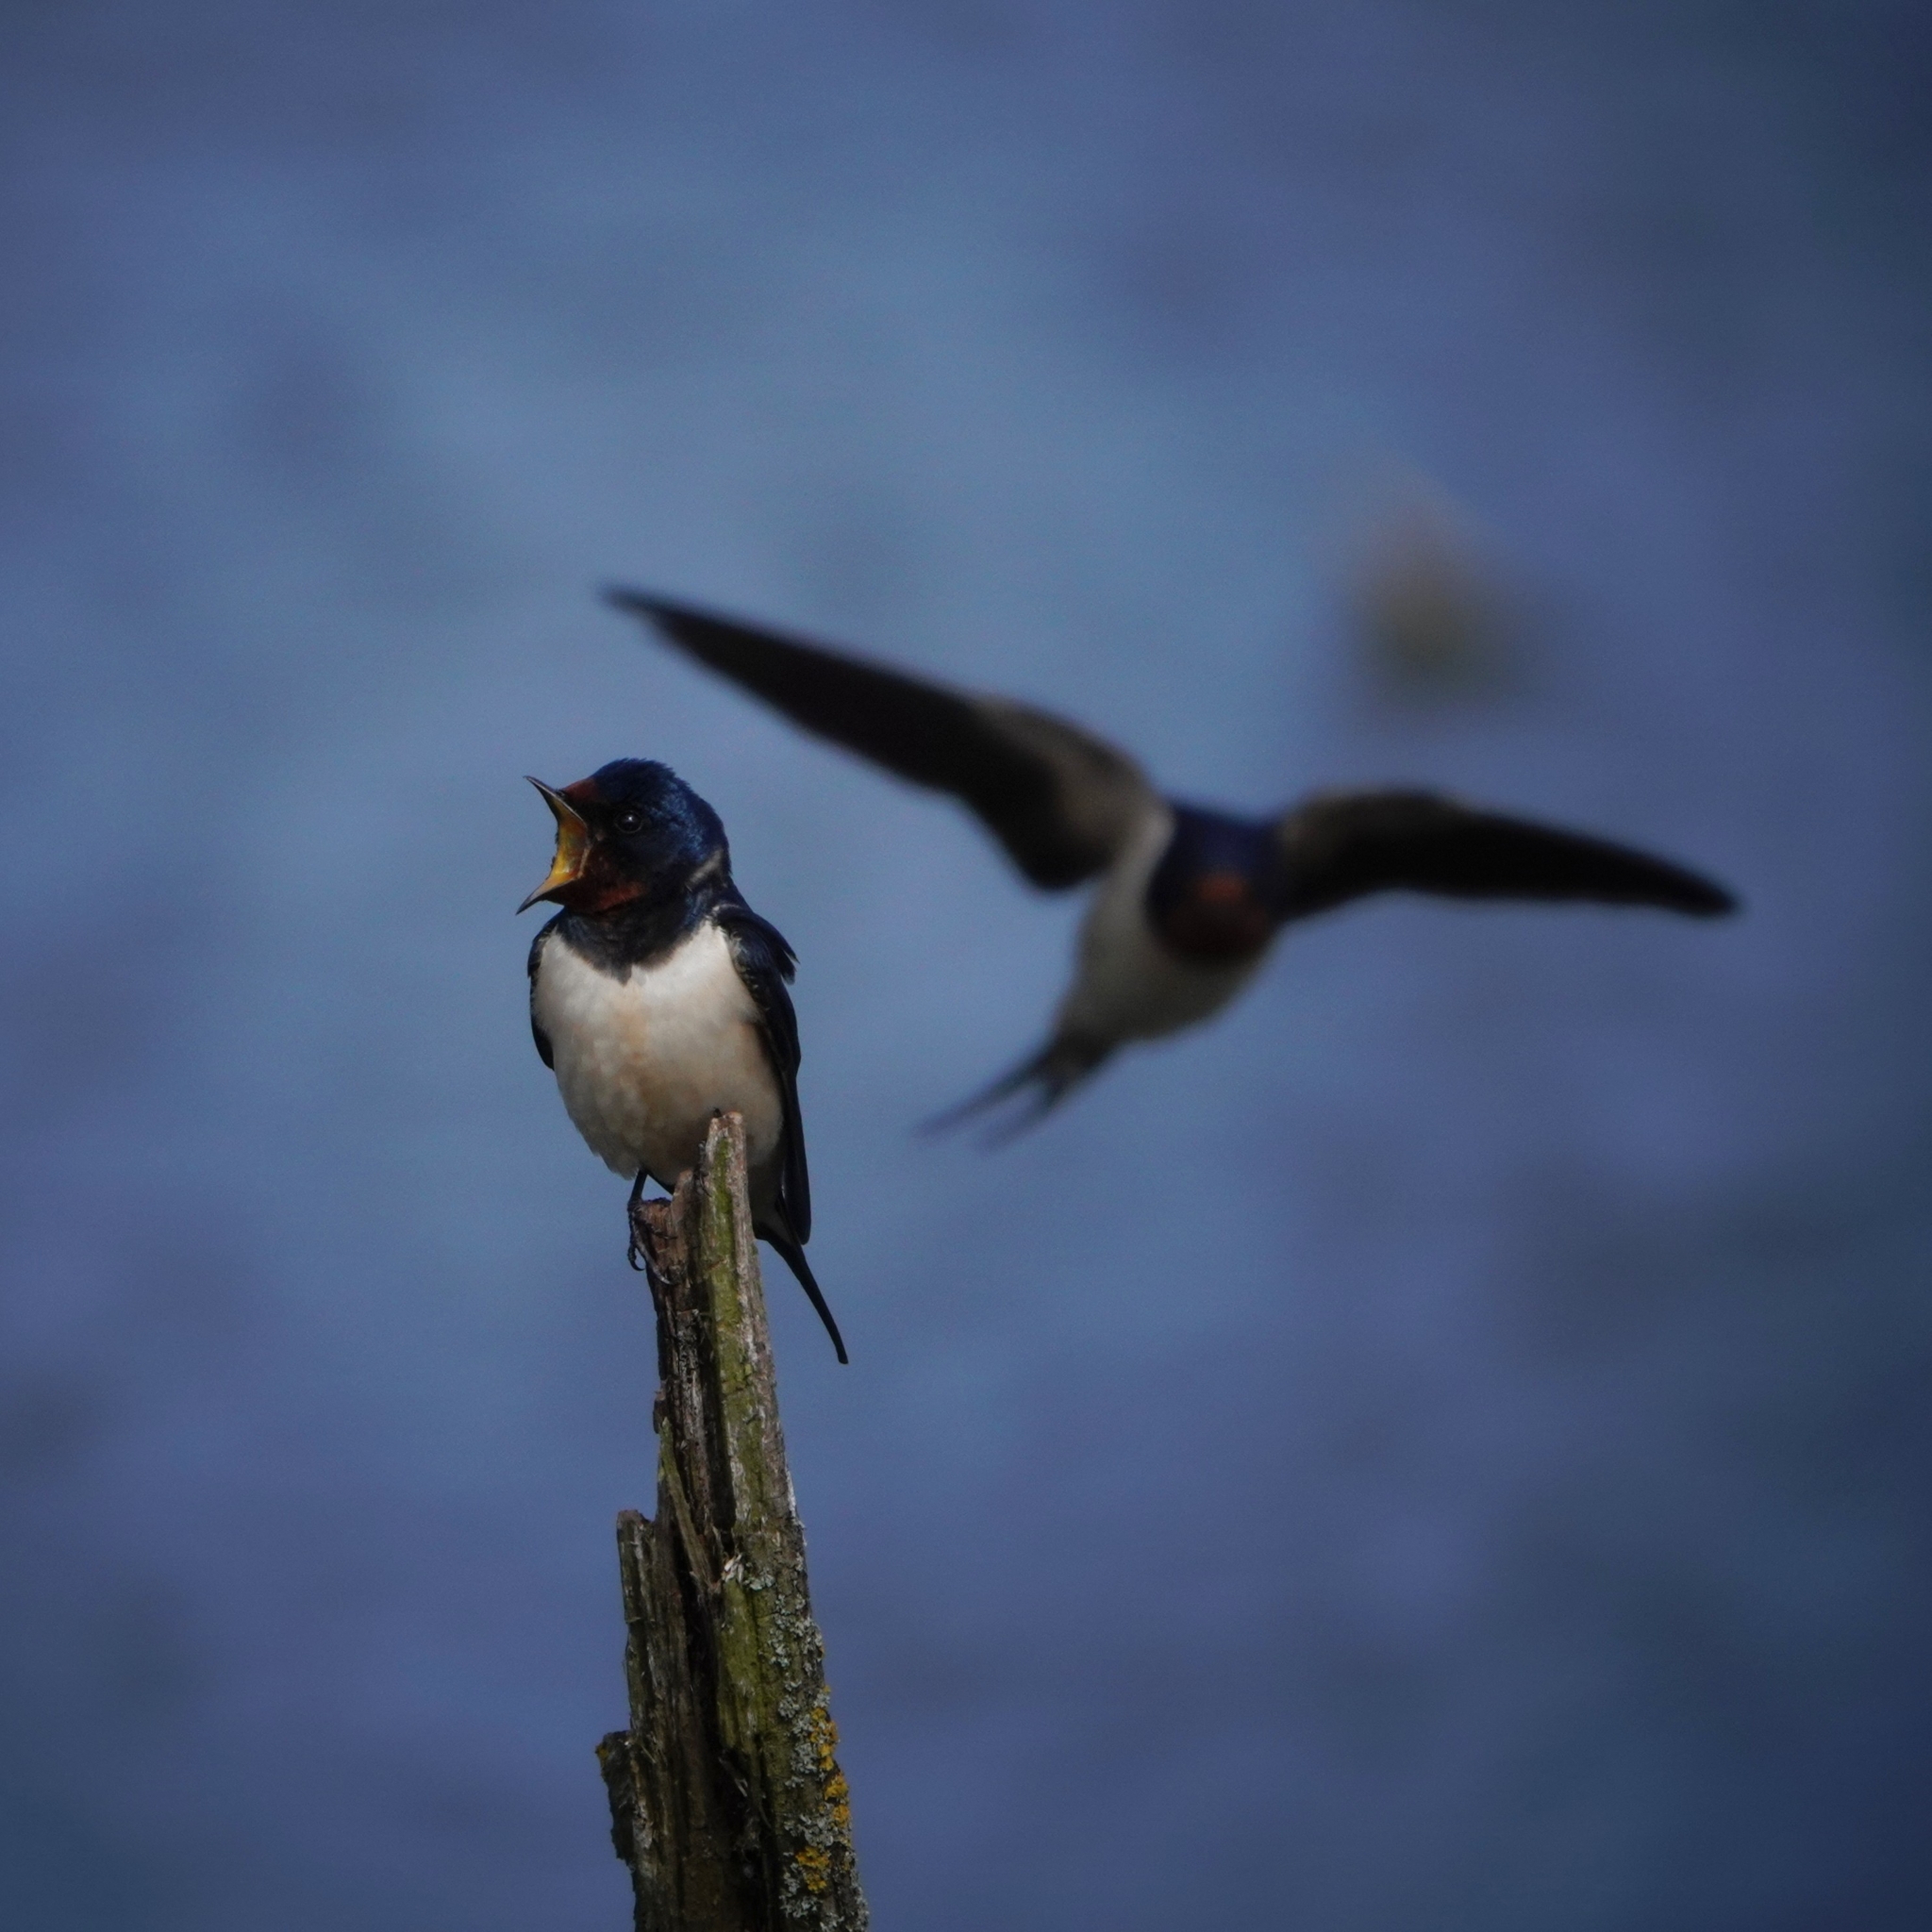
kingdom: Animalia
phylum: Chordata
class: Aves
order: Passeriformes
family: Hirundinidae
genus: Hirundo
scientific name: Hirundo rustica
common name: Barn swallow
